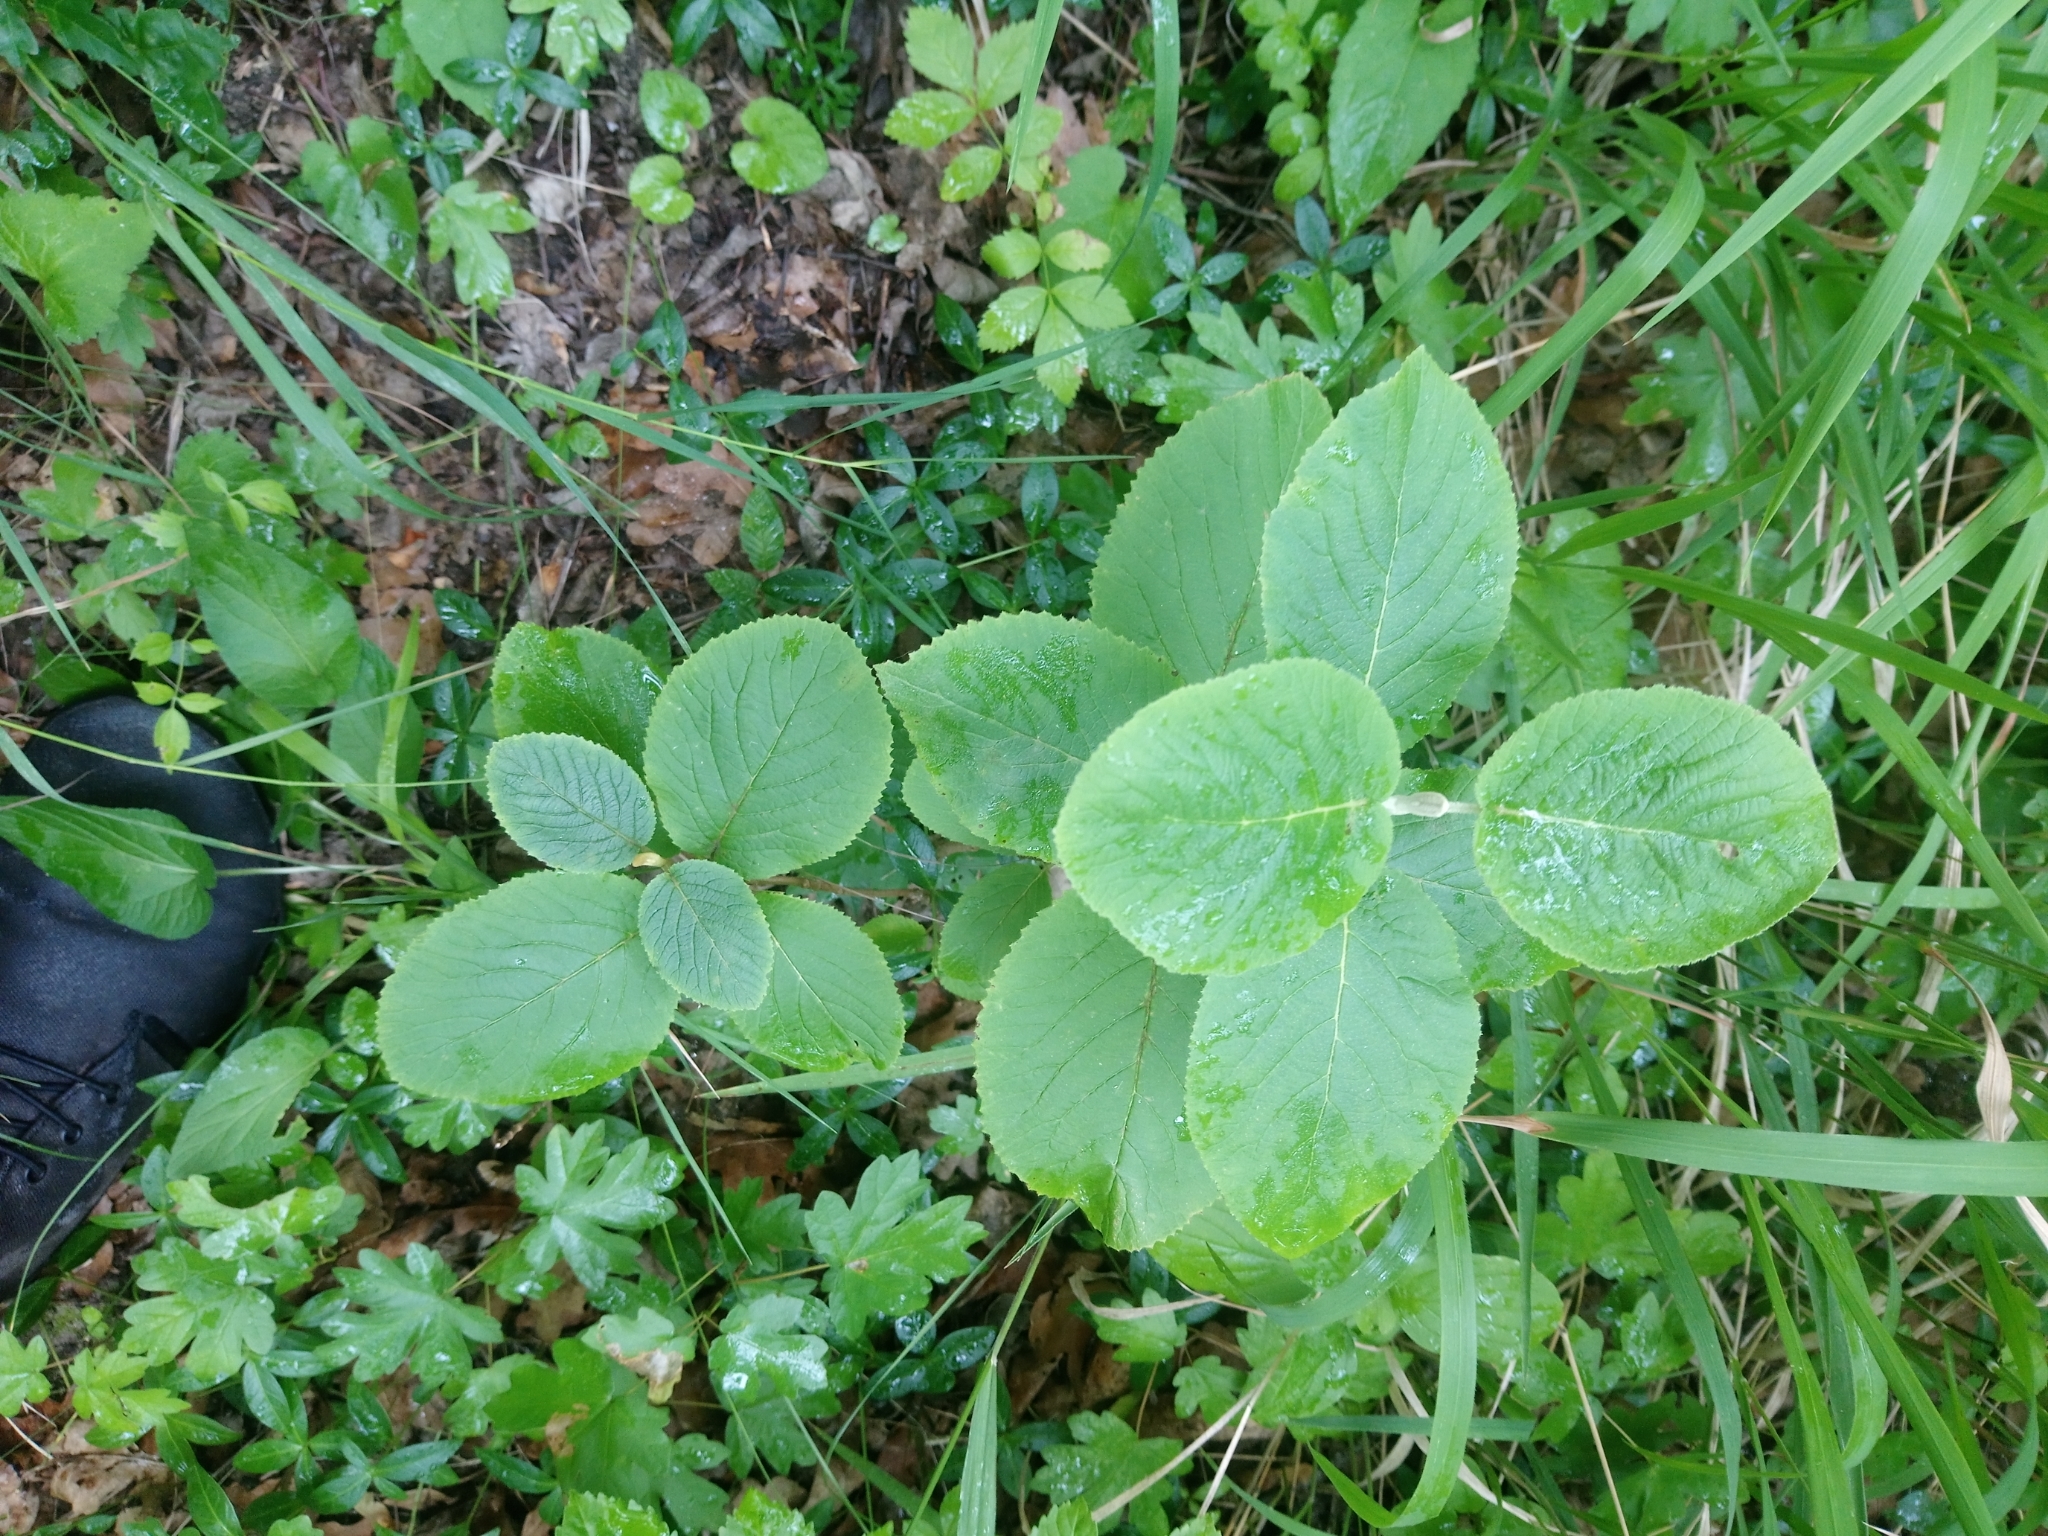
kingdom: Plantae
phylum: Tracheophyta
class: Magnoliopsida
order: Dipsacales
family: Viburnaceae
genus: Viburnum
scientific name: Viburnum lantana
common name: Wayfaring tree
